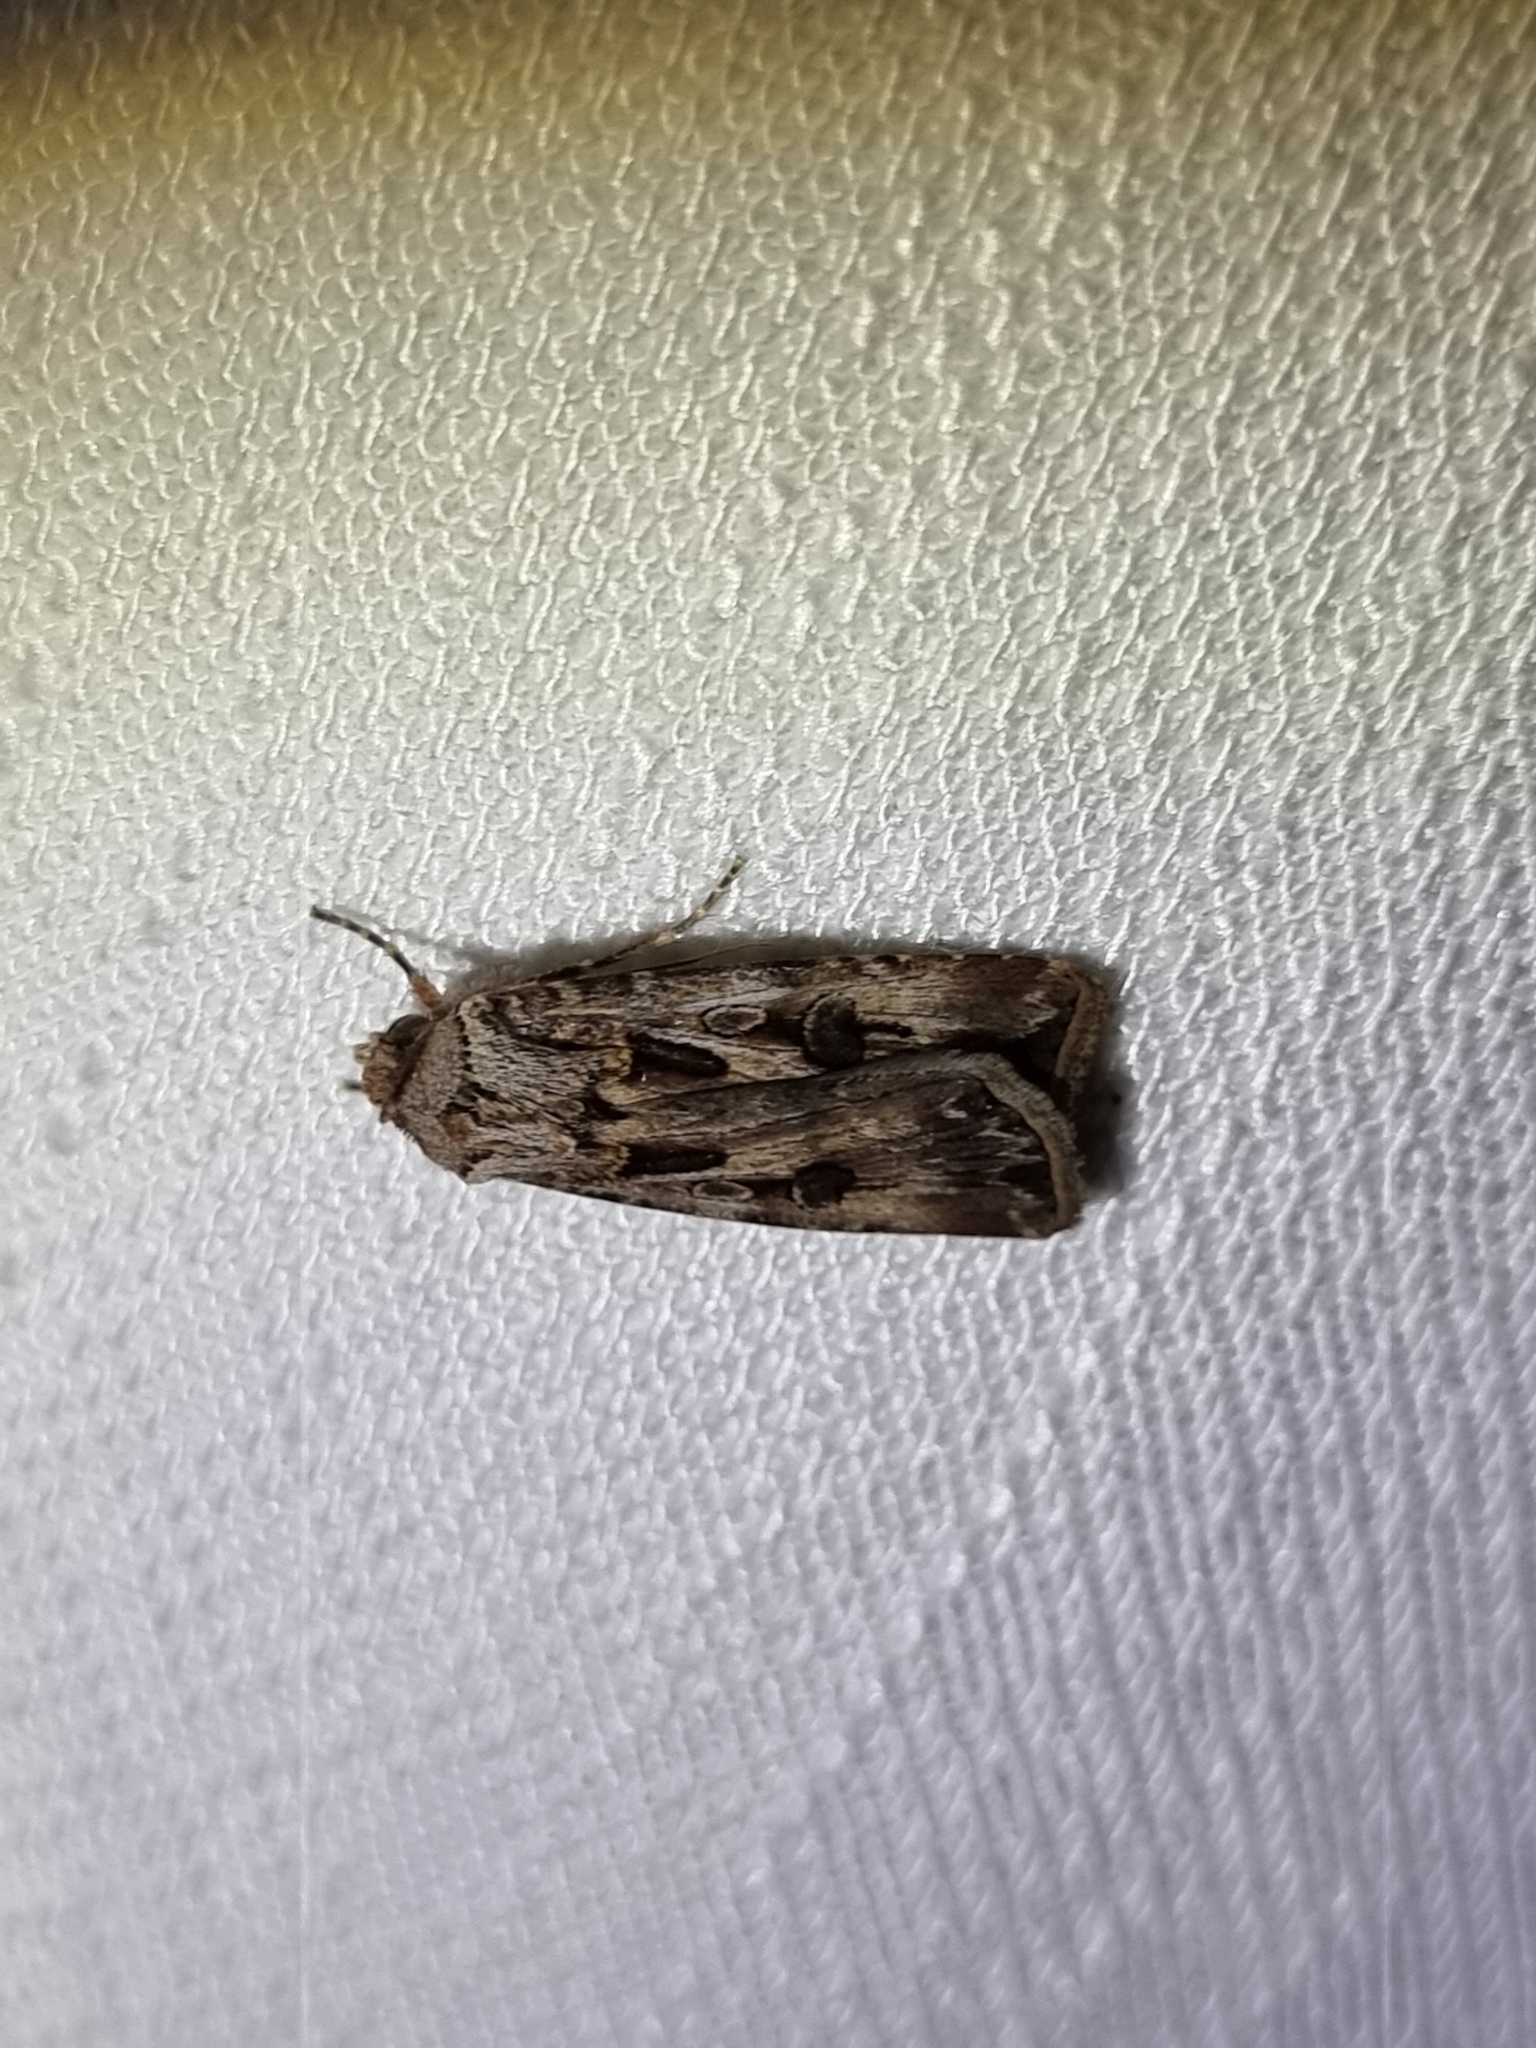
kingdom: Animalia
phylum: Arthropoda
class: Insecta
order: Lepidoptera
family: Noctuidae
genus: Agrotis
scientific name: Agrotis munda
